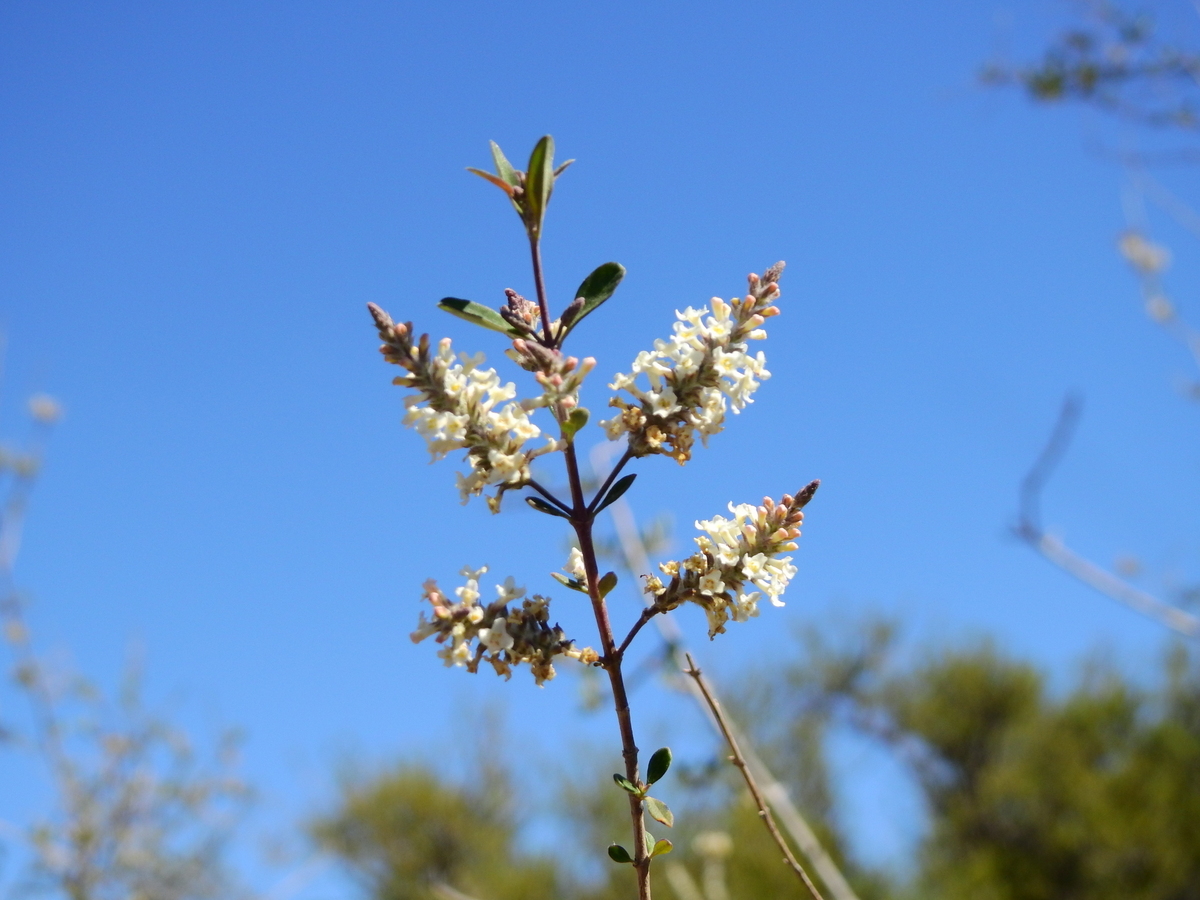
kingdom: Plantae
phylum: Tracheophyta
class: Magnoliopsida
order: Lamiales
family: Verbenaceae
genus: Aloysia
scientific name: Aloysia gratissima
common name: Common bee-brush
